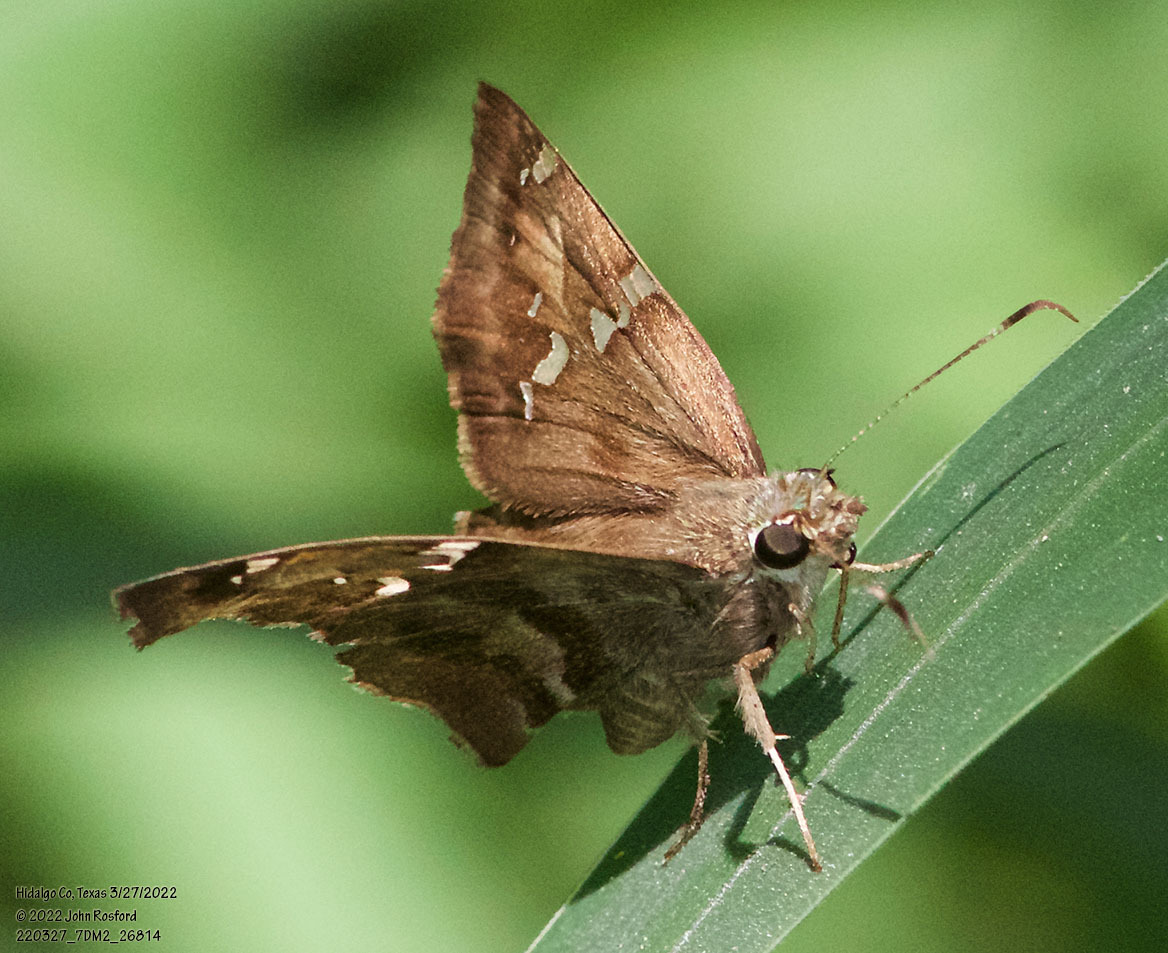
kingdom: Animalia
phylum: Arthropoda
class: Insecta
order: Lepidoptera
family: Hesperiidae
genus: Autochton
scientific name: Autochton potrillo
